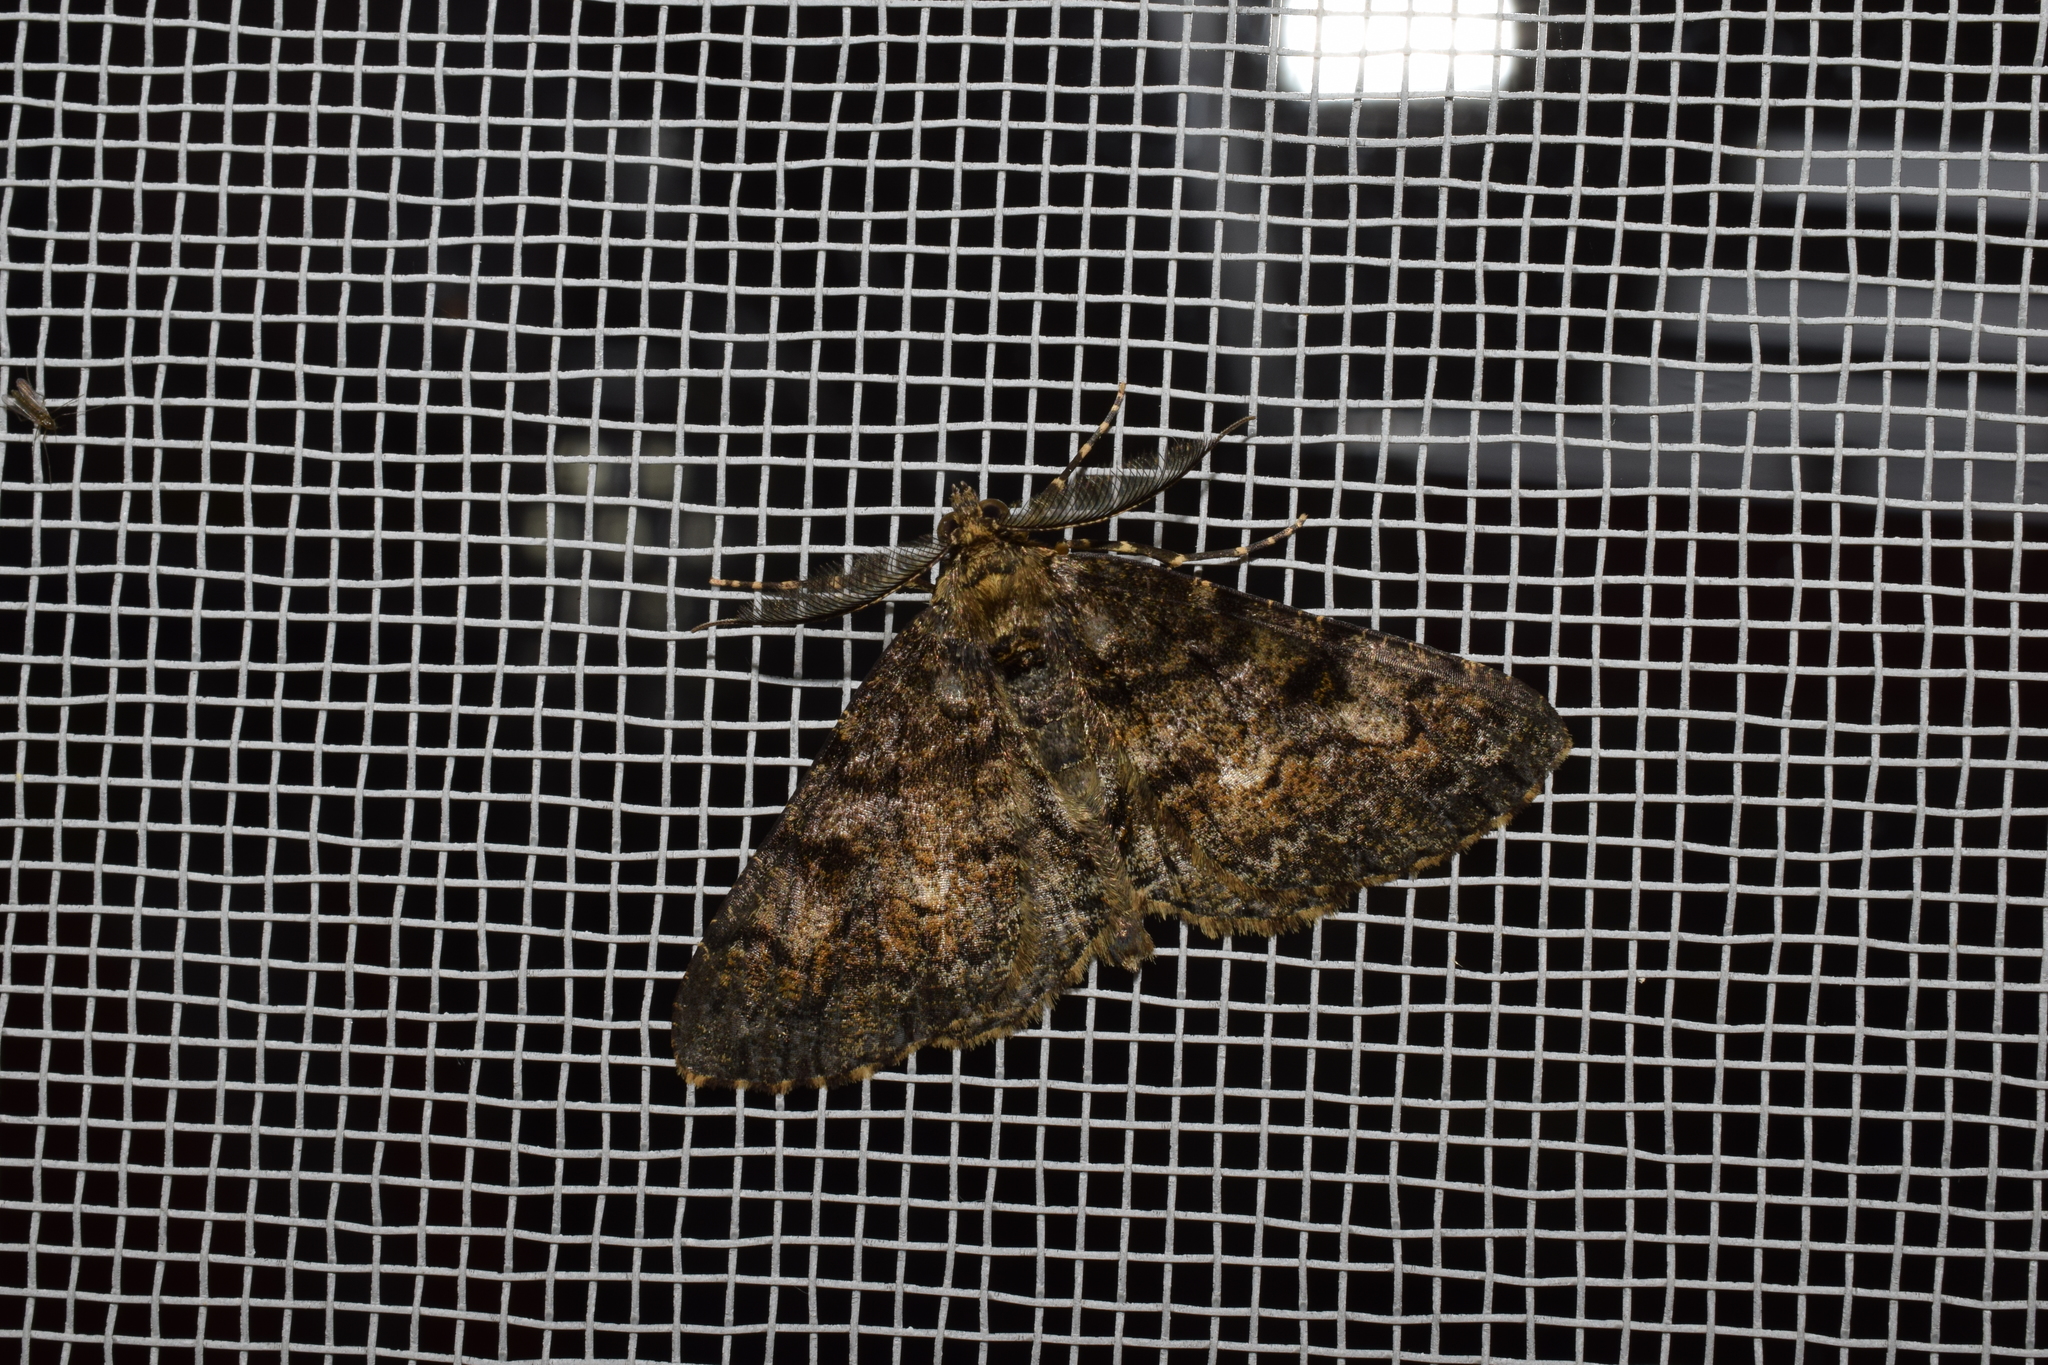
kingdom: Animalia
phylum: Arthropoda
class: Insecta
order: Lepidoptera
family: Geometridae
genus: Alcis
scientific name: Alcis angulifera
